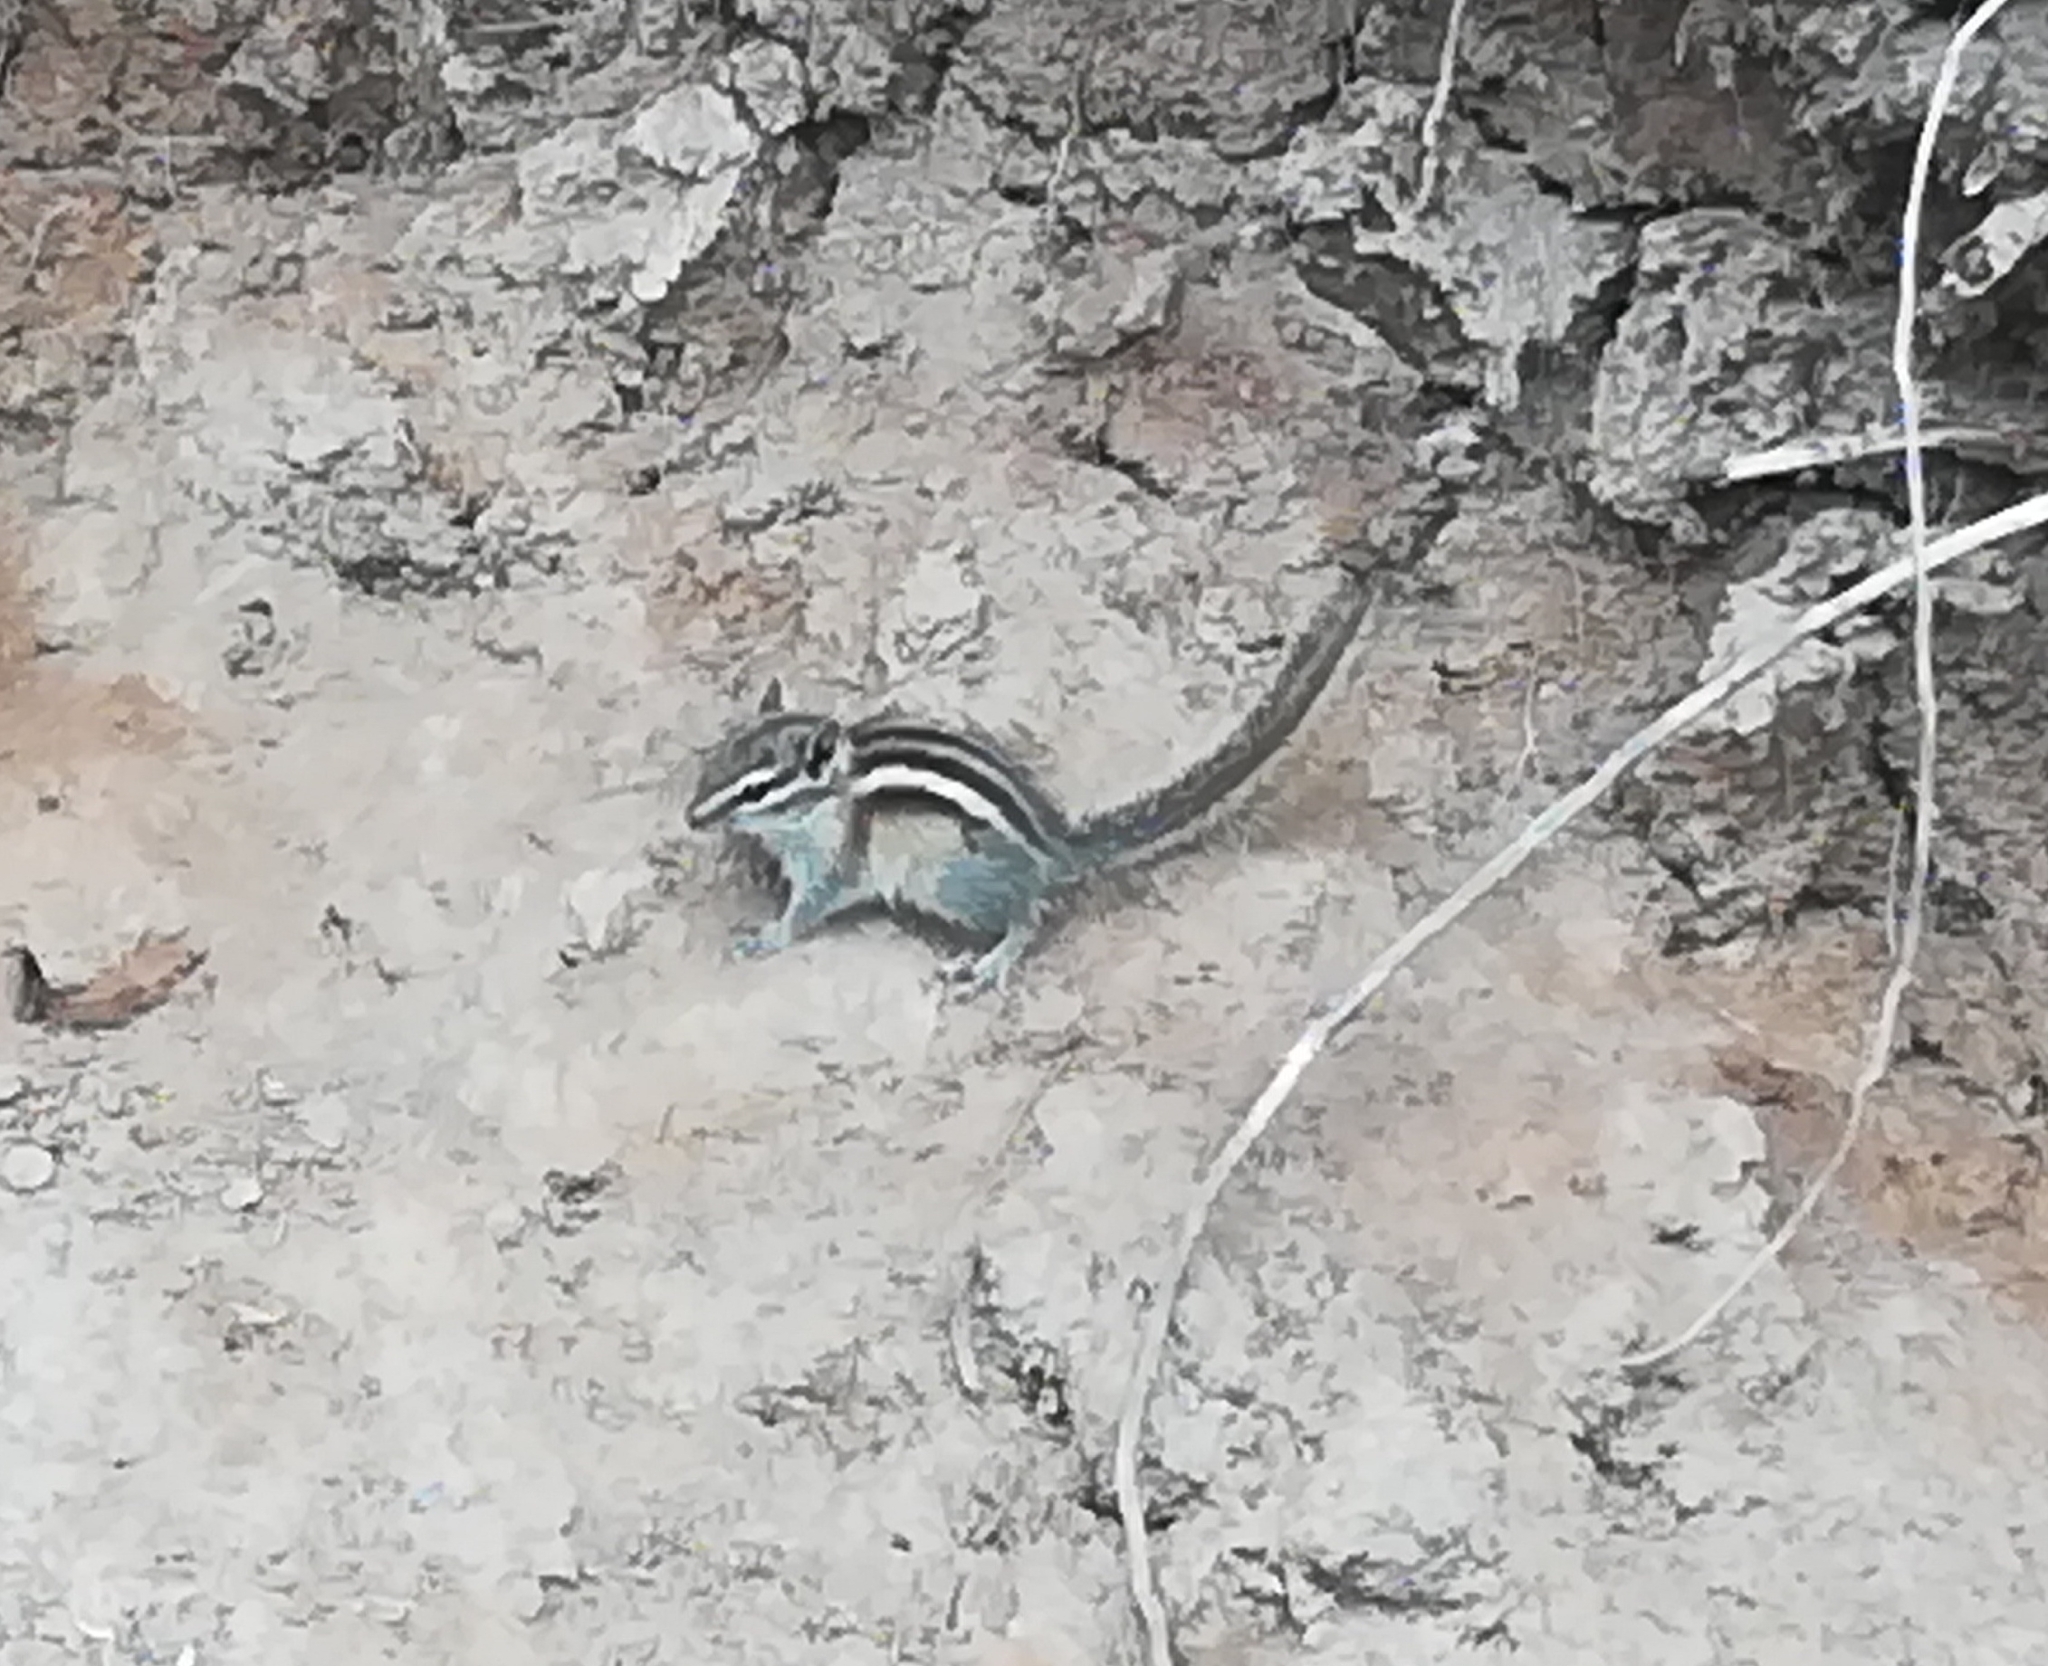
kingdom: Animalia
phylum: Chordata
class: Mammalia
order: Rodentia
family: Sciuridae
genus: Tamias
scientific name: Tamias minimus
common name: Least chipmunk
